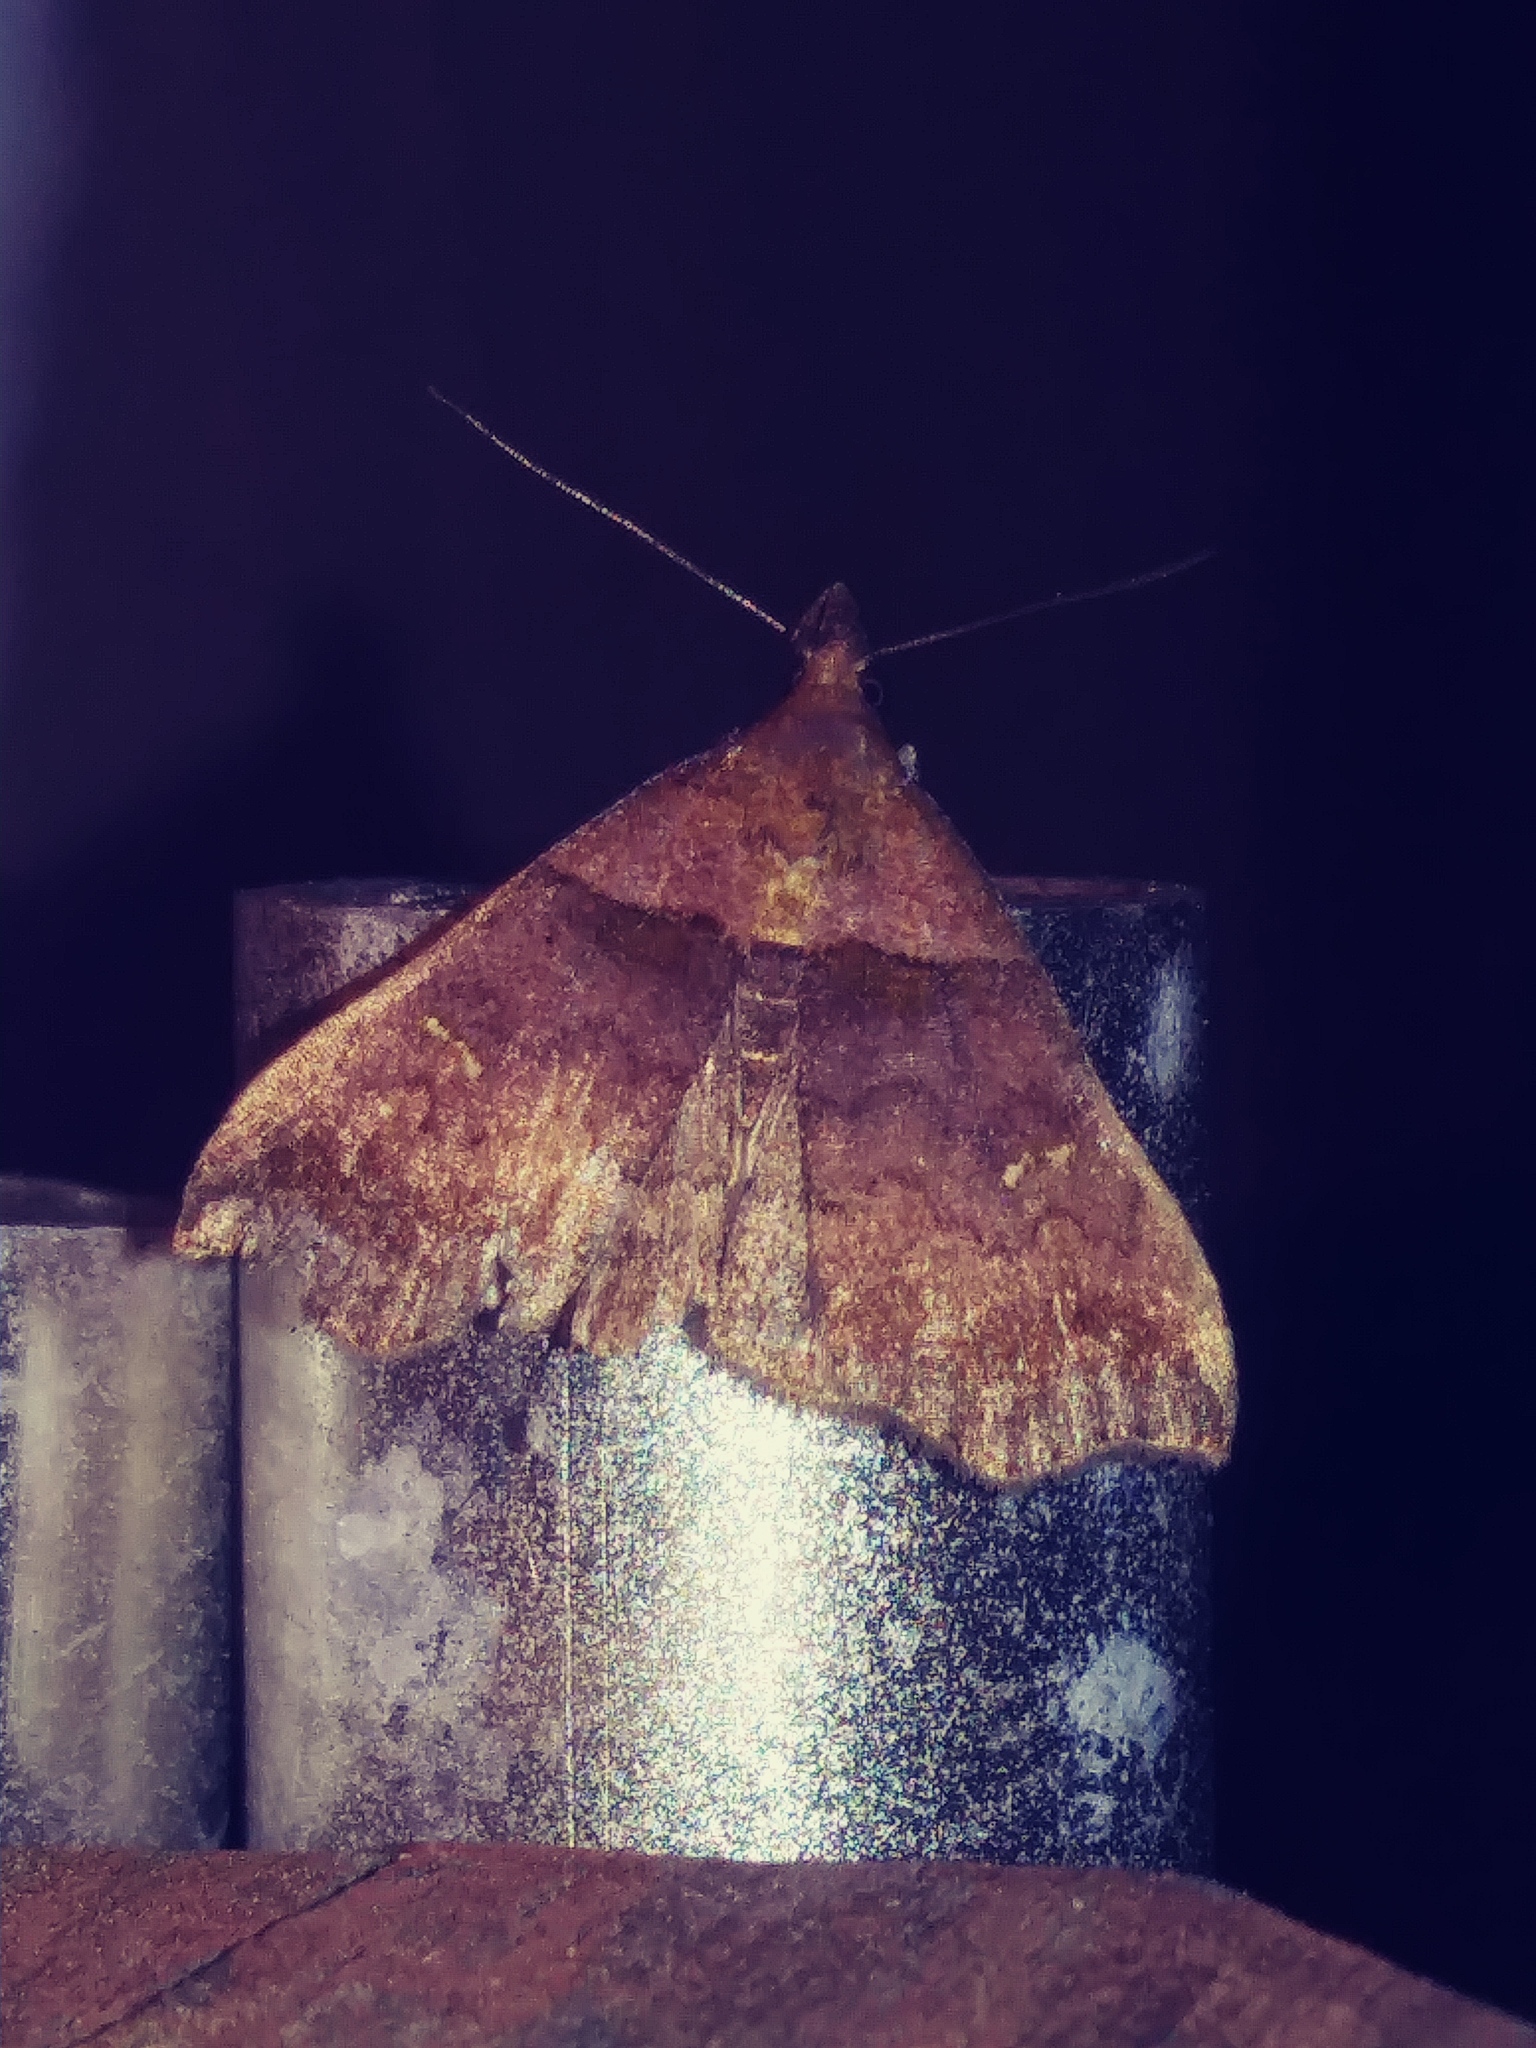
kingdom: Animalia
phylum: Arthropoda
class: Insecta
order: Lepidoptera
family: Erebidae
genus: Lascoria
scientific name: Lascoria ambigualis
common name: Ambiguous moth
